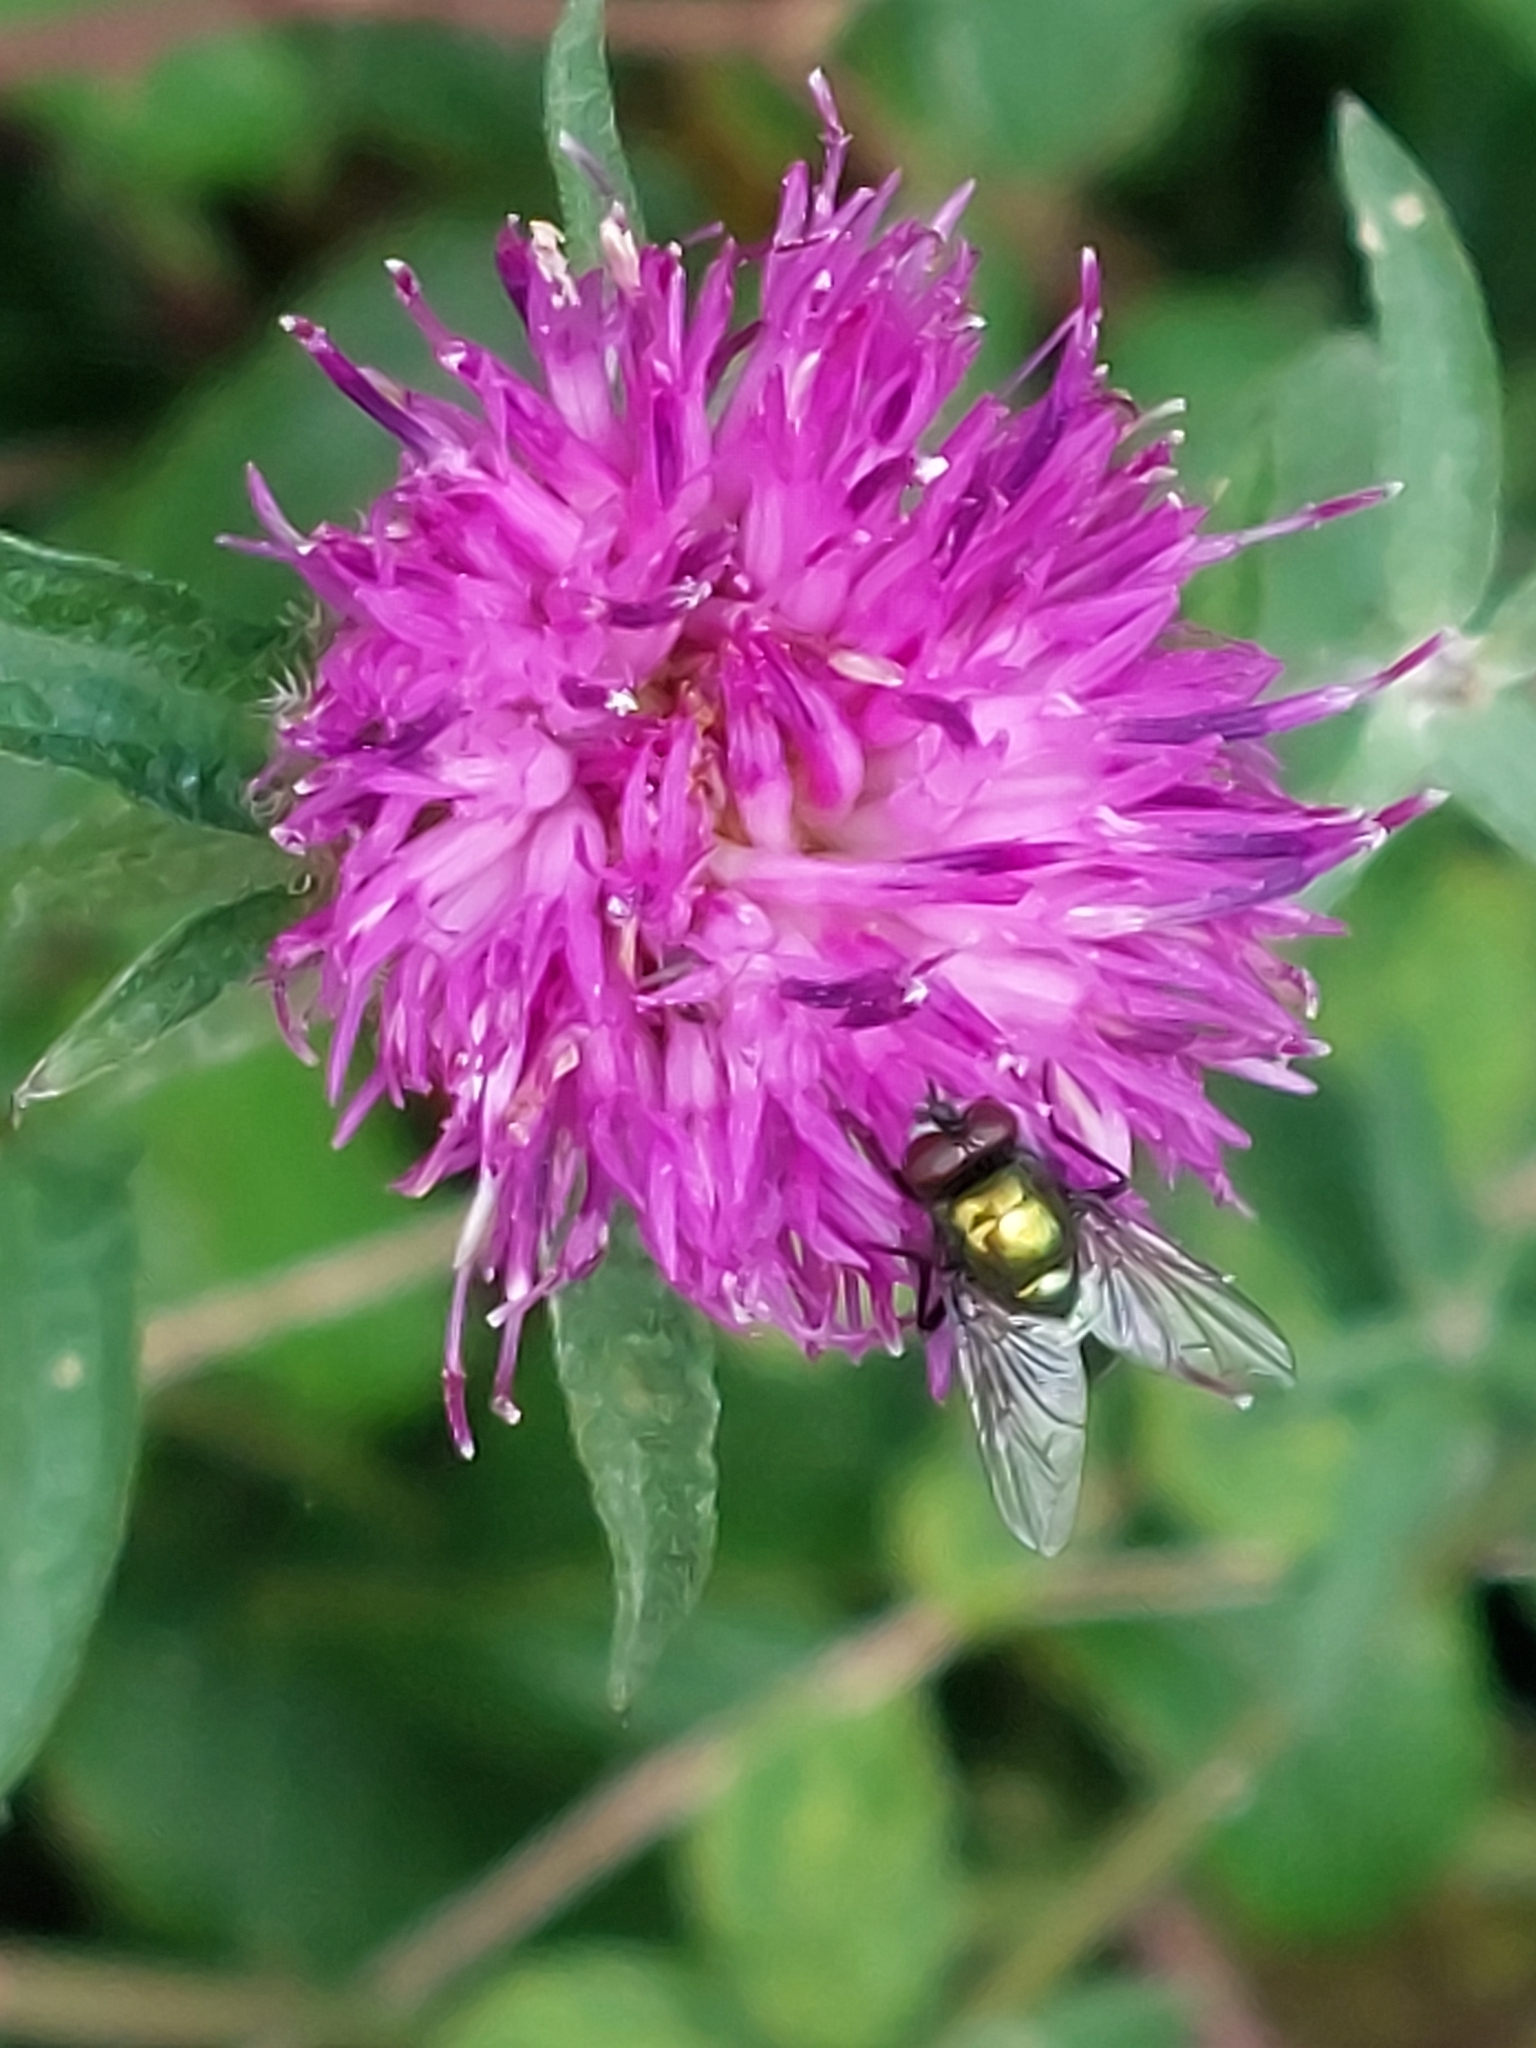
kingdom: Plantae
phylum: Tracheophyta
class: Magnoliopsida
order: Asterales
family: Asteraceae
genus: Centaurea
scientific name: Centaurea nigra
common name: Lesser knapweed
